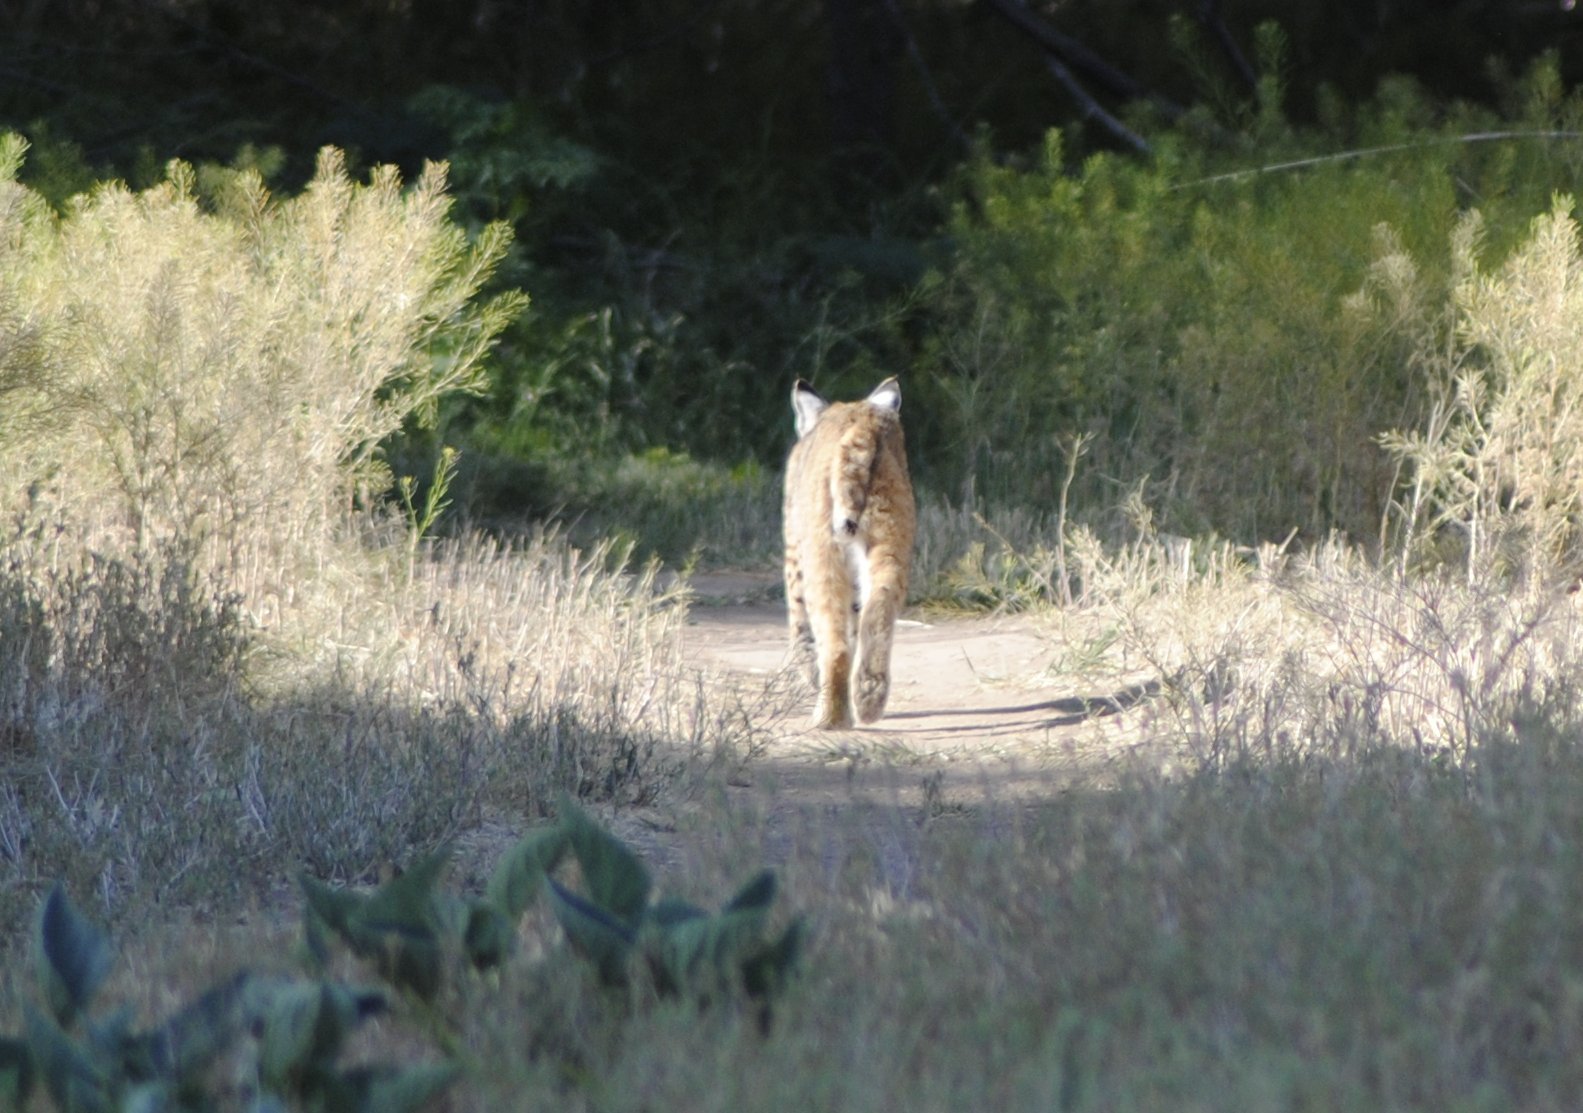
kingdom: Animalia
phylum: Chordata
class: Mammalia
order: Carnivora
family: Felidae
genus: Lynx
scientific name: Lynx rufus
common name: Bobcat
